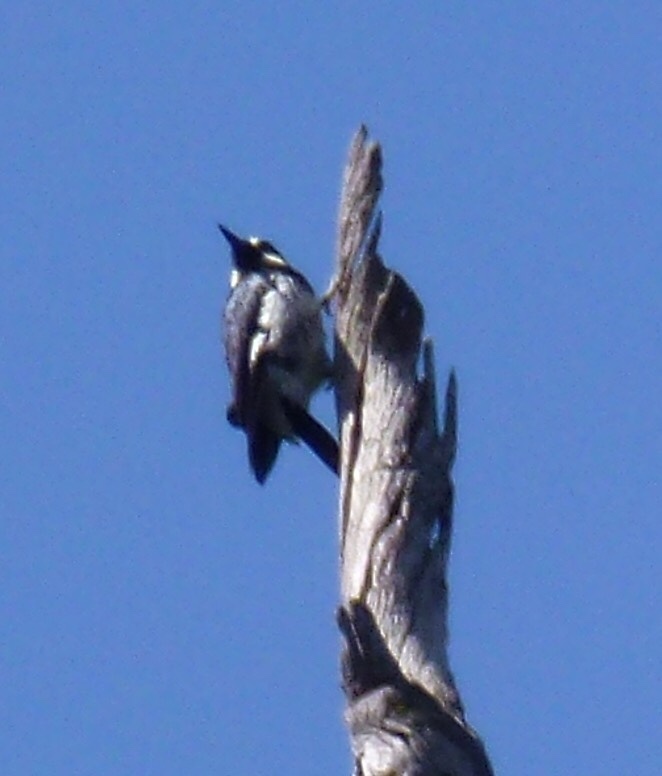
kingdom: Animalia
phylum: Chordata
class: Aves
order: Piciformes
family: Picidae
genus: Melanerpes
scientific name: Melanerpes formicivorus
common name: Acorn woodpecker
